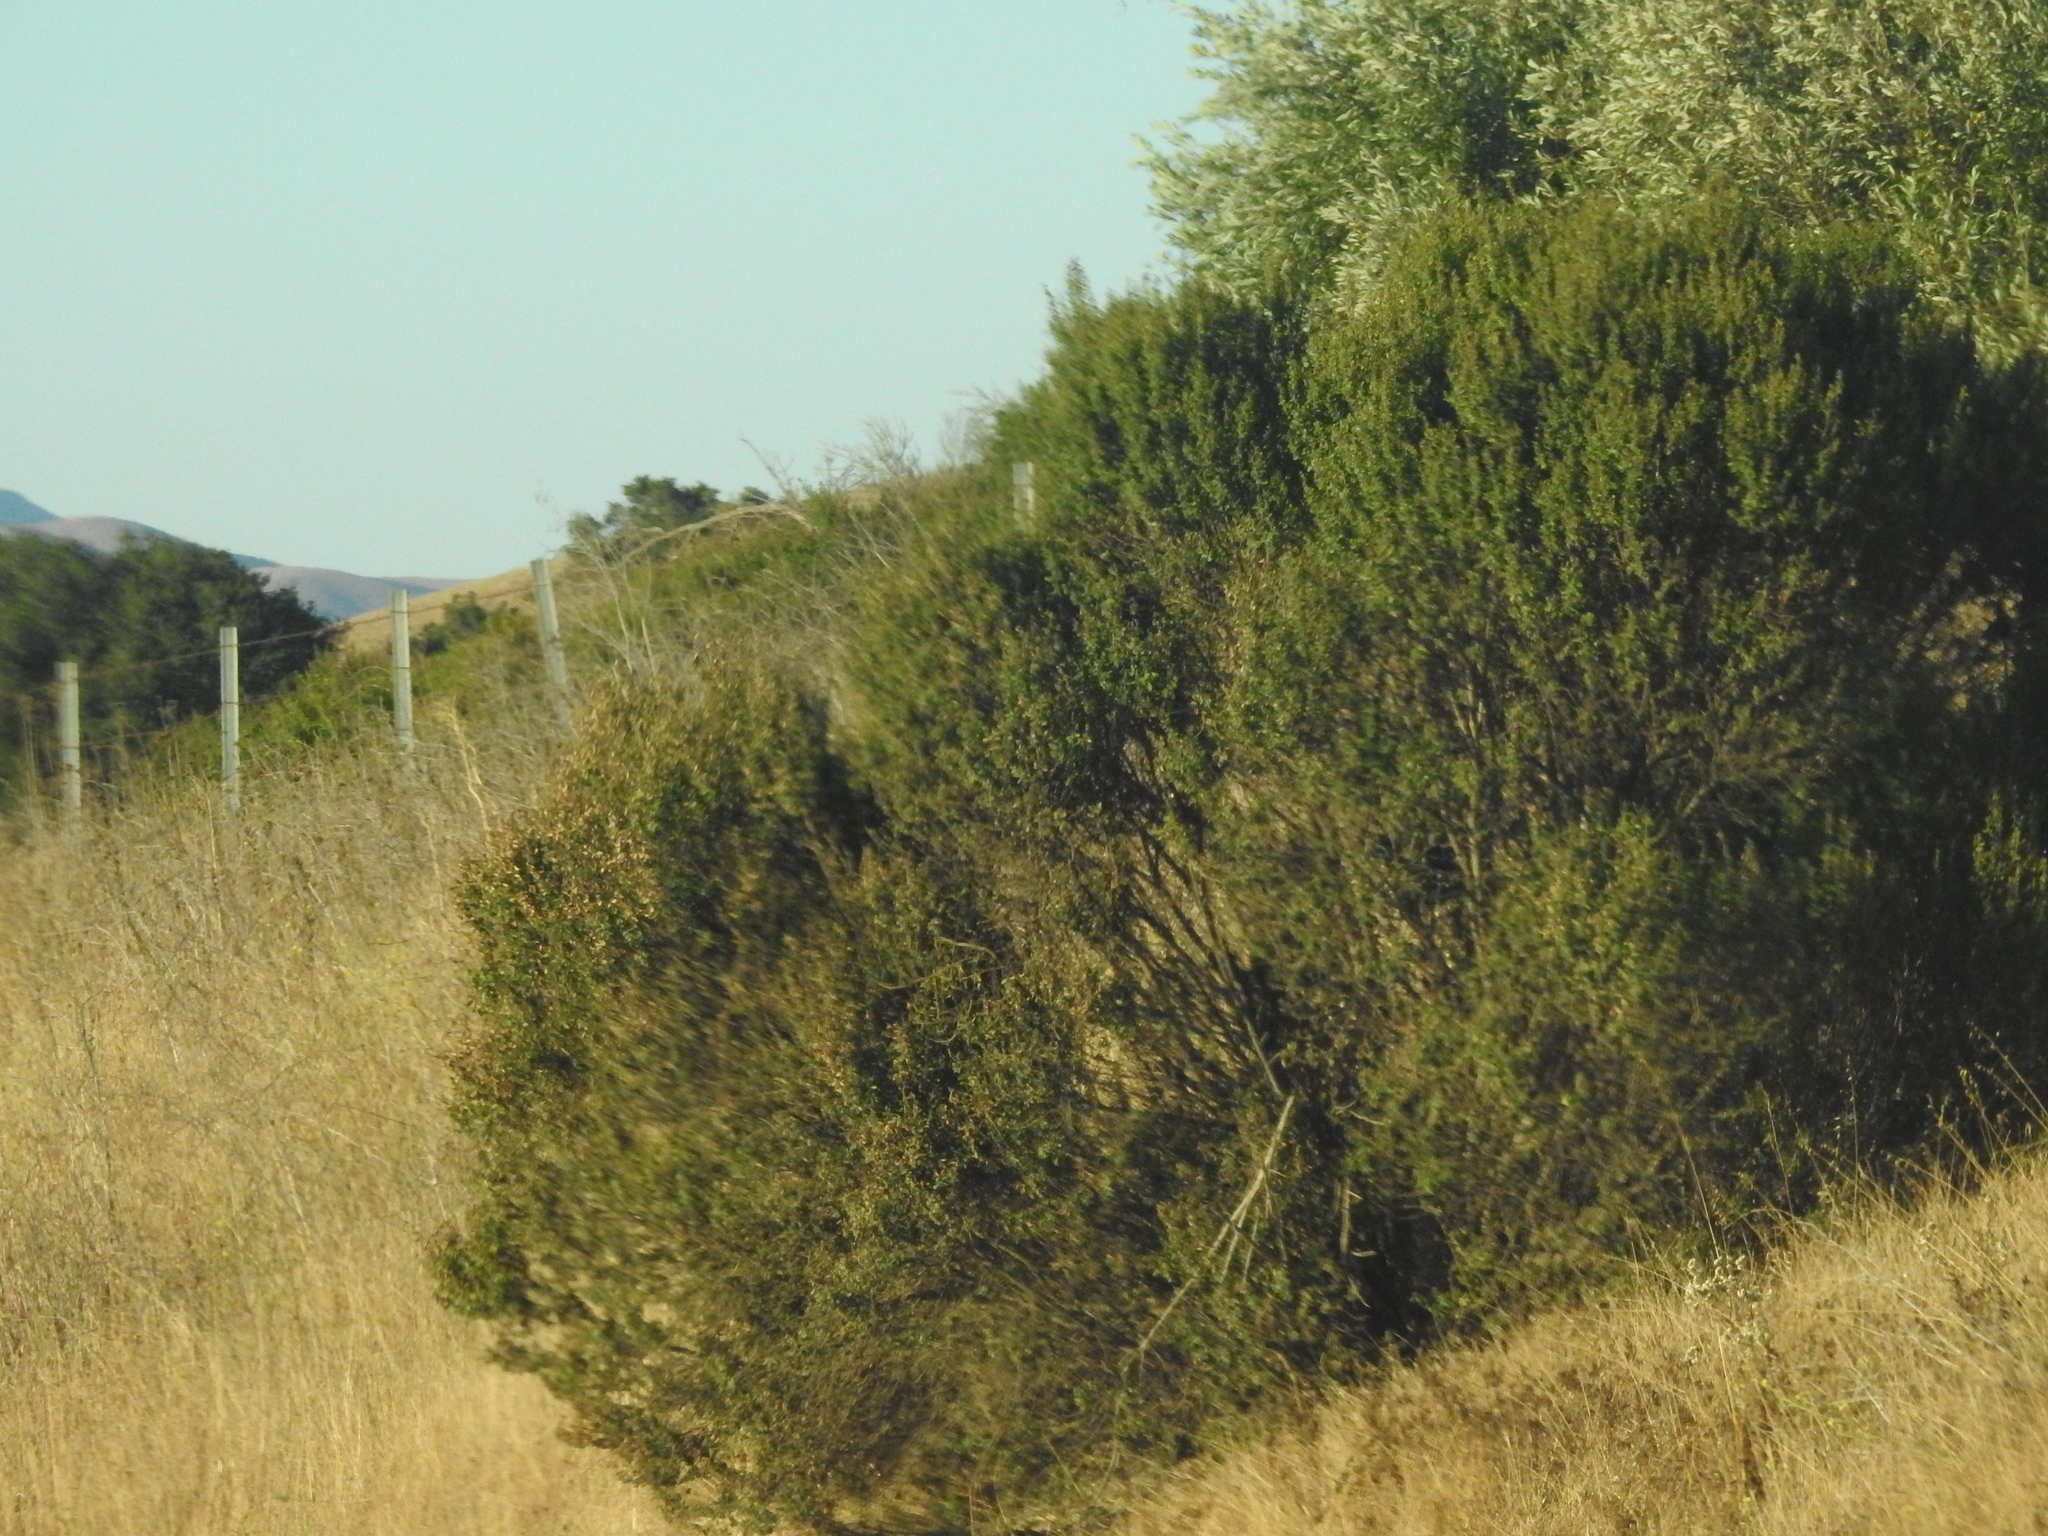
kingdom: Plantae
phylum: Tracheophyta
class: Magnoliopsida
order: Asterales
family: Asteraceae
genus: Baccharis
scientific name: Baccharis pilularis
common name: Coyotebrush
